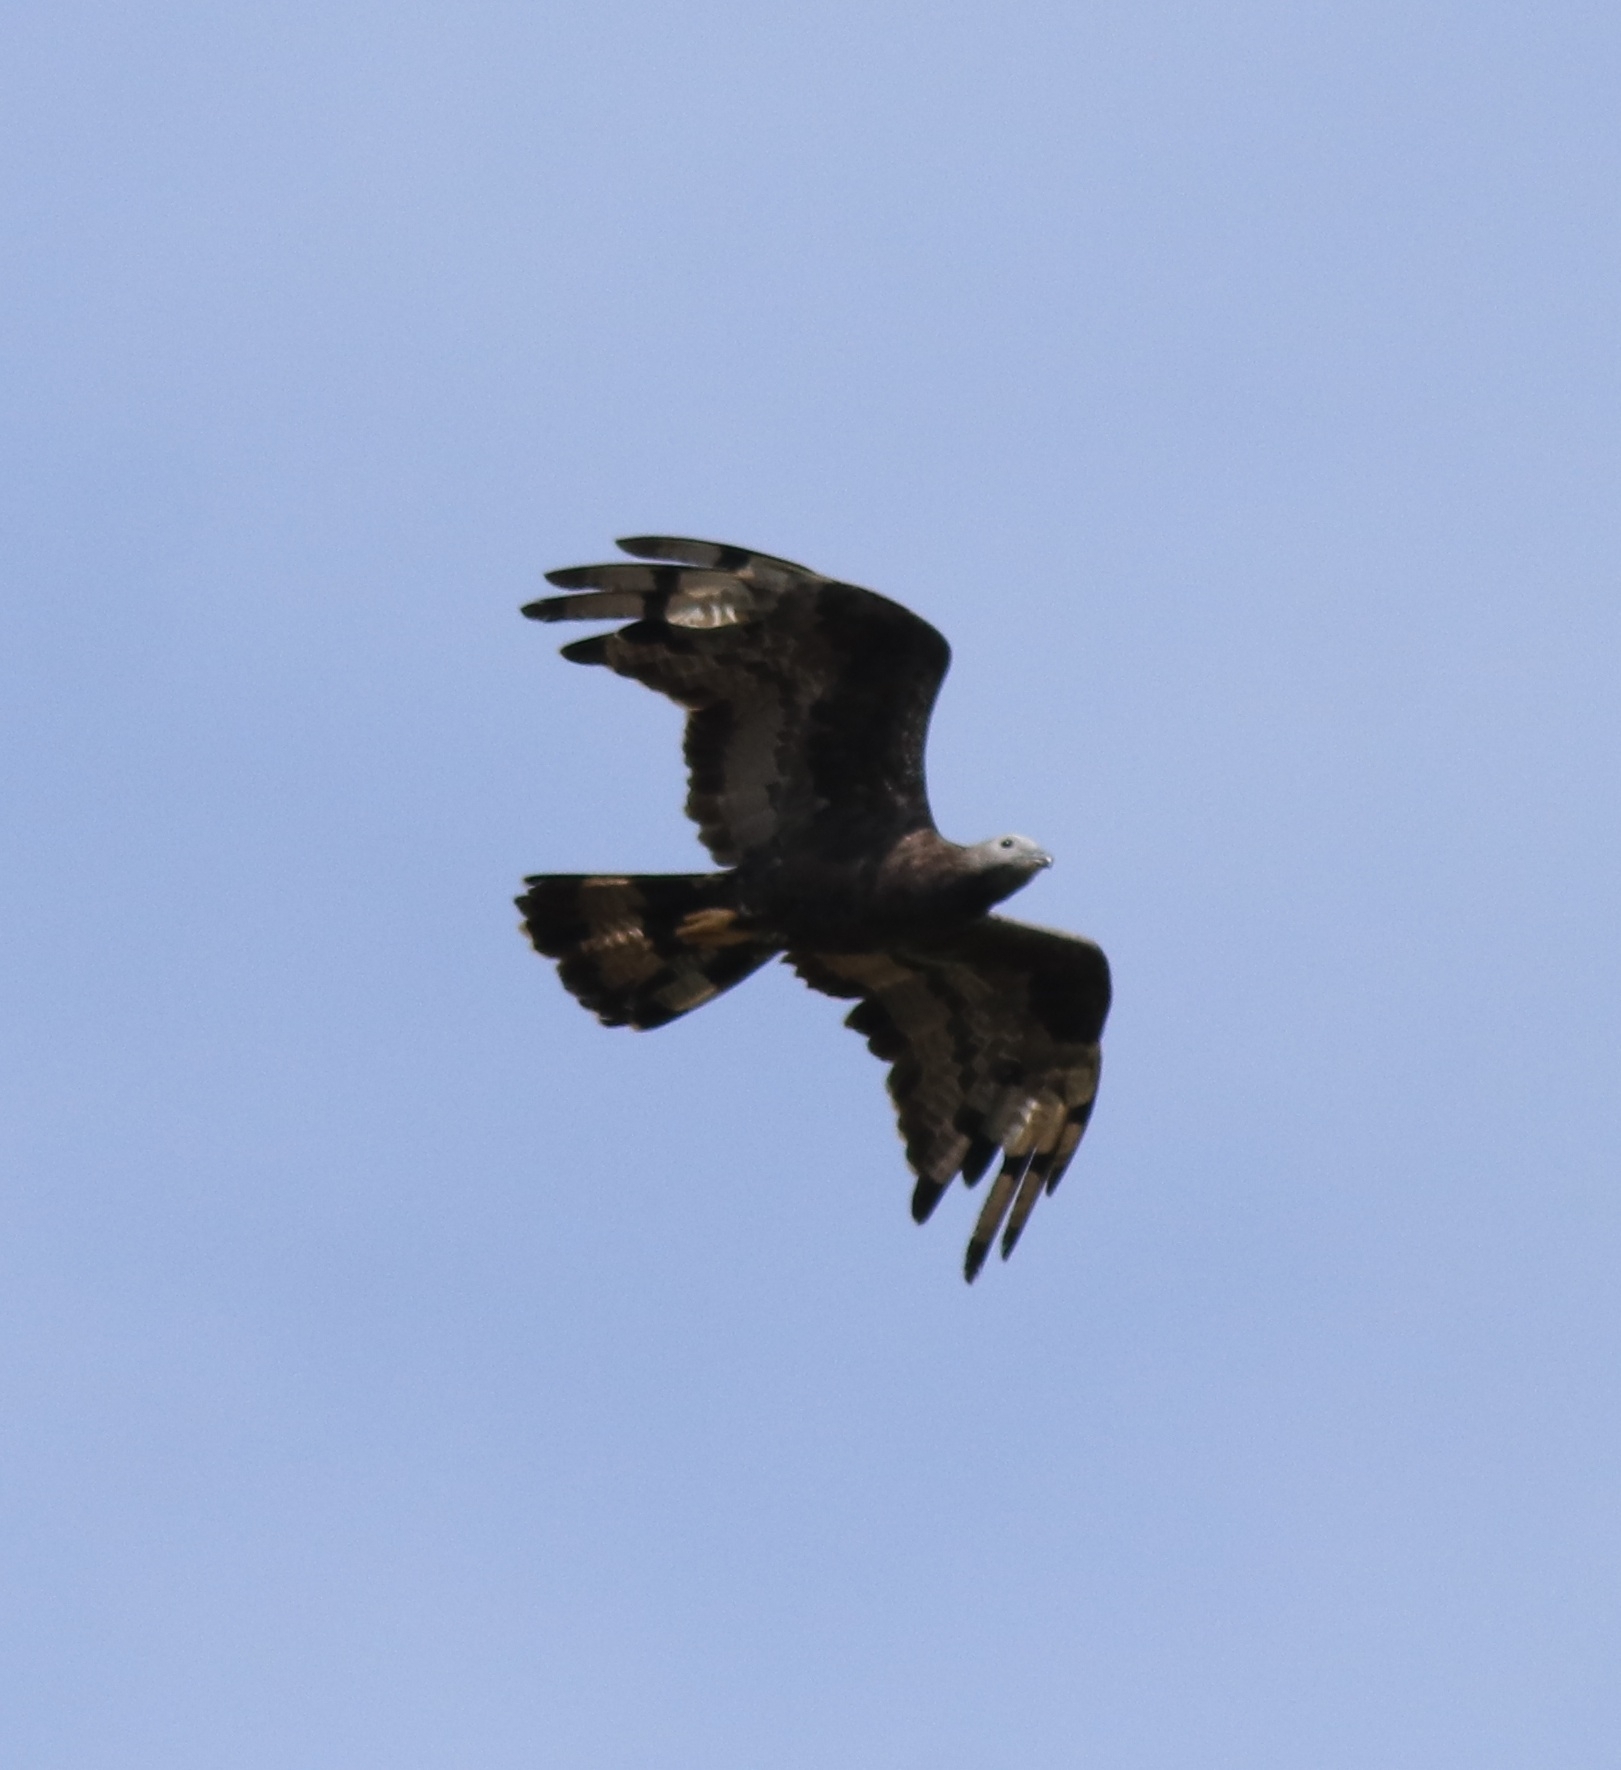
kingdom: Animalia
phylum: Chordata
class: Aves
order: Accipitriformes
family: Accipitridae
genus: Pernis
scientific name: Pernis ptilorhynchus
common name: Crested honey buzzard
